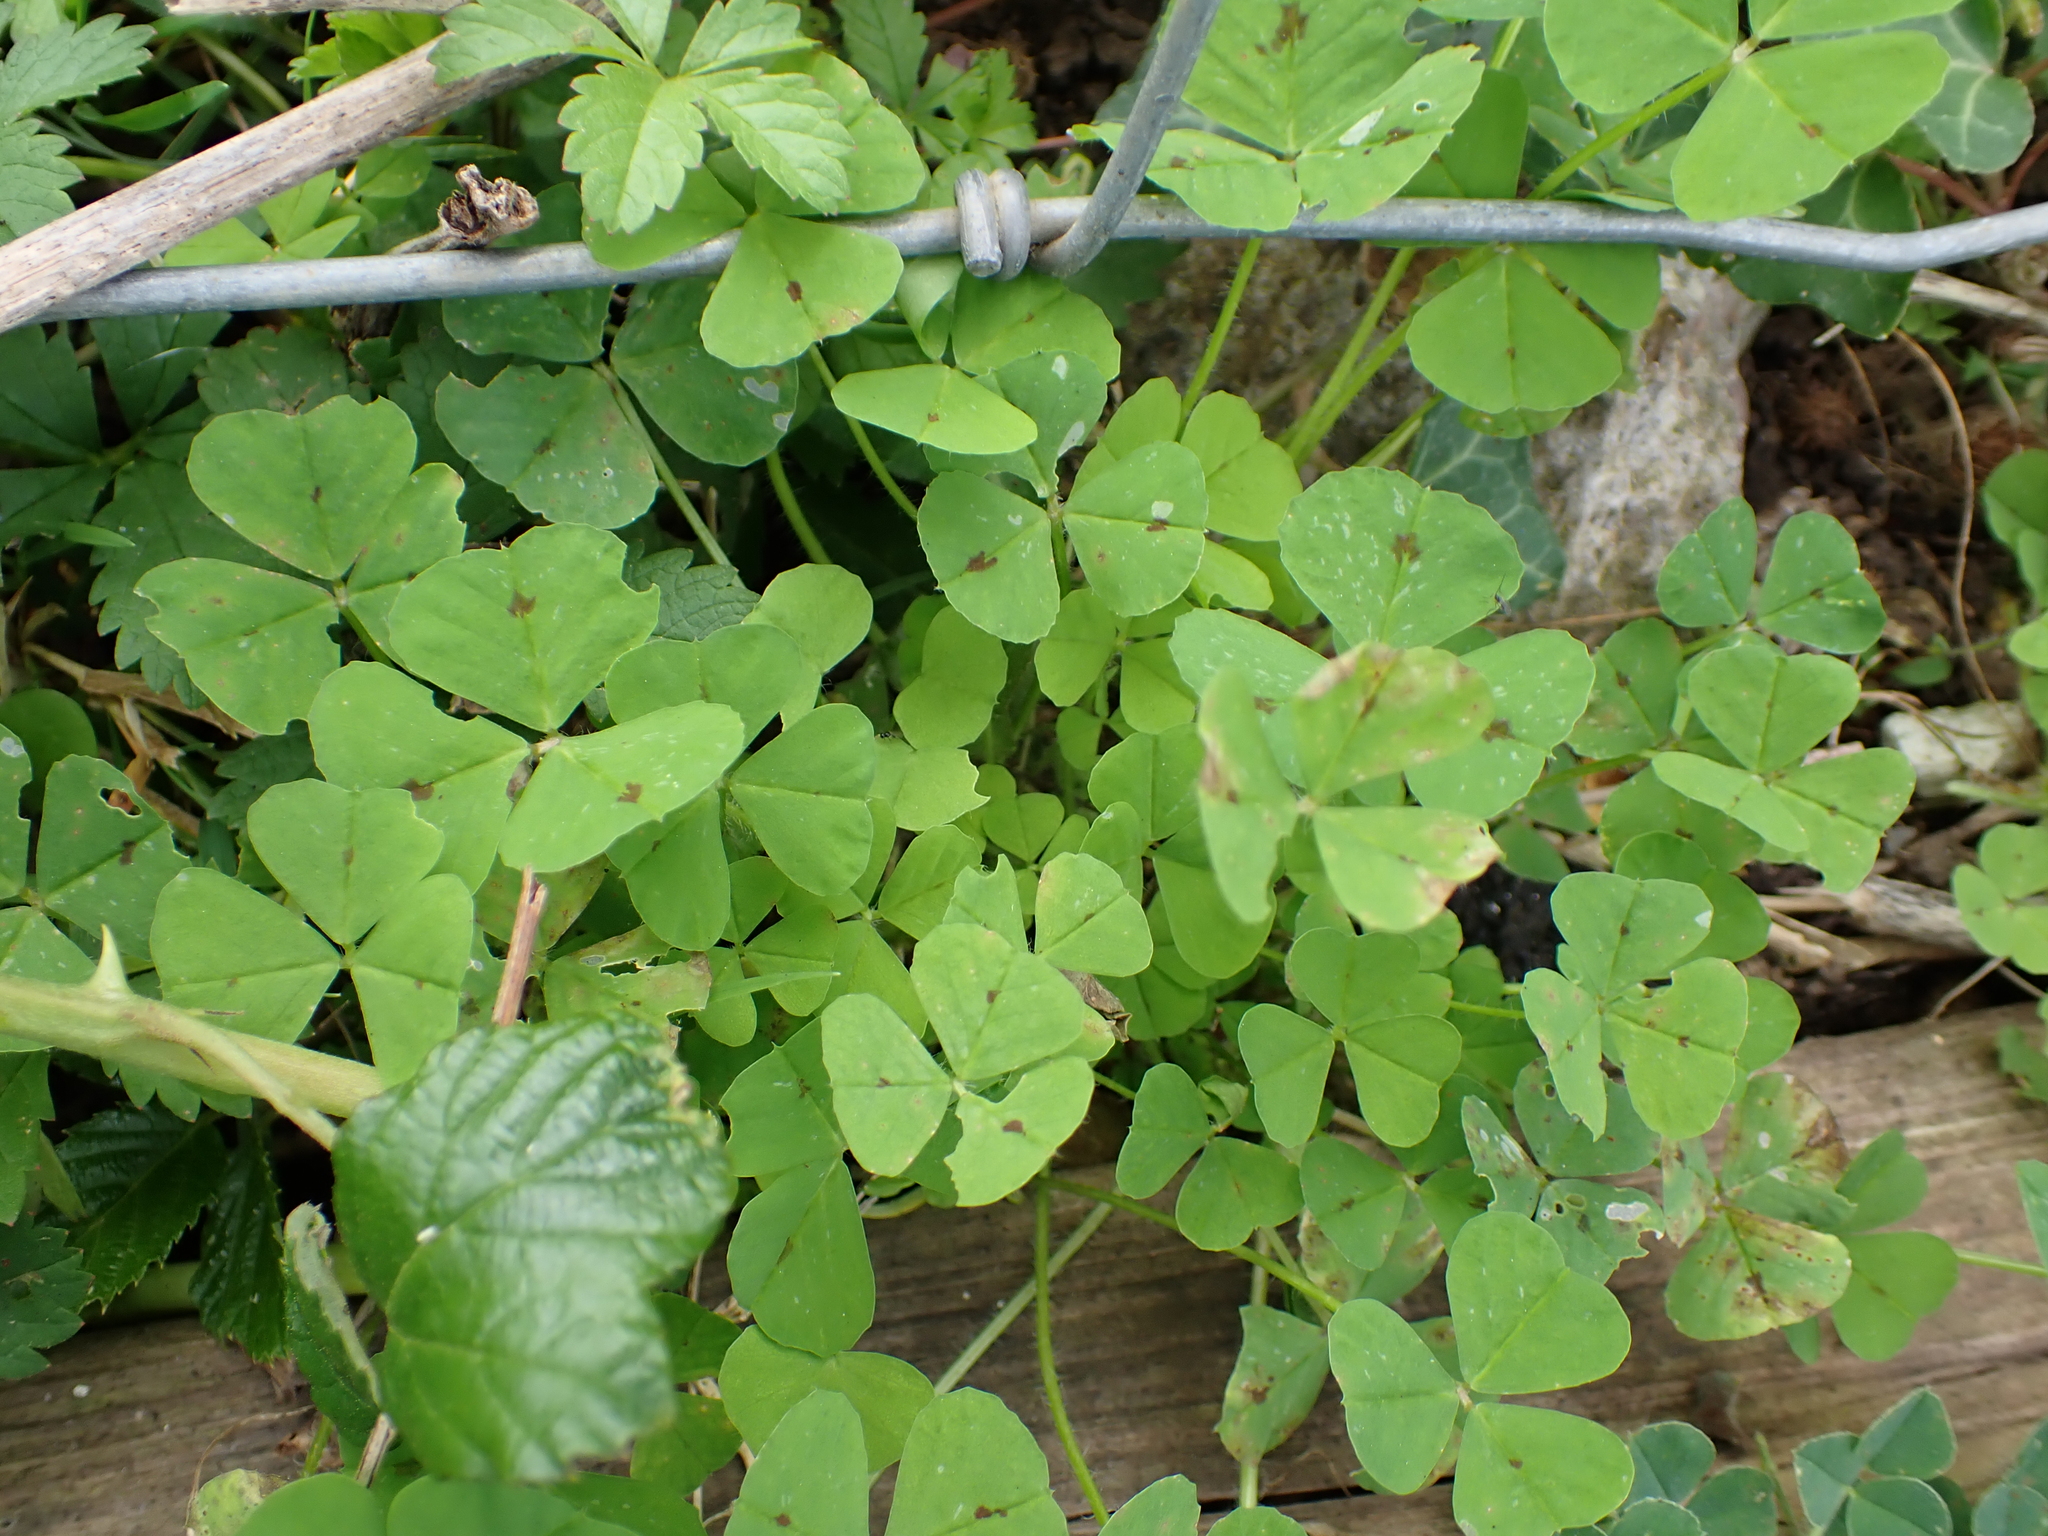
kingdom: Plantae
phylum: Tracheophyta
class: Magnoliopsida
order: Fabales
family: Fabaceae
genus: Medicago
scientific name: Medicago arabica
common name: Spotted medick
